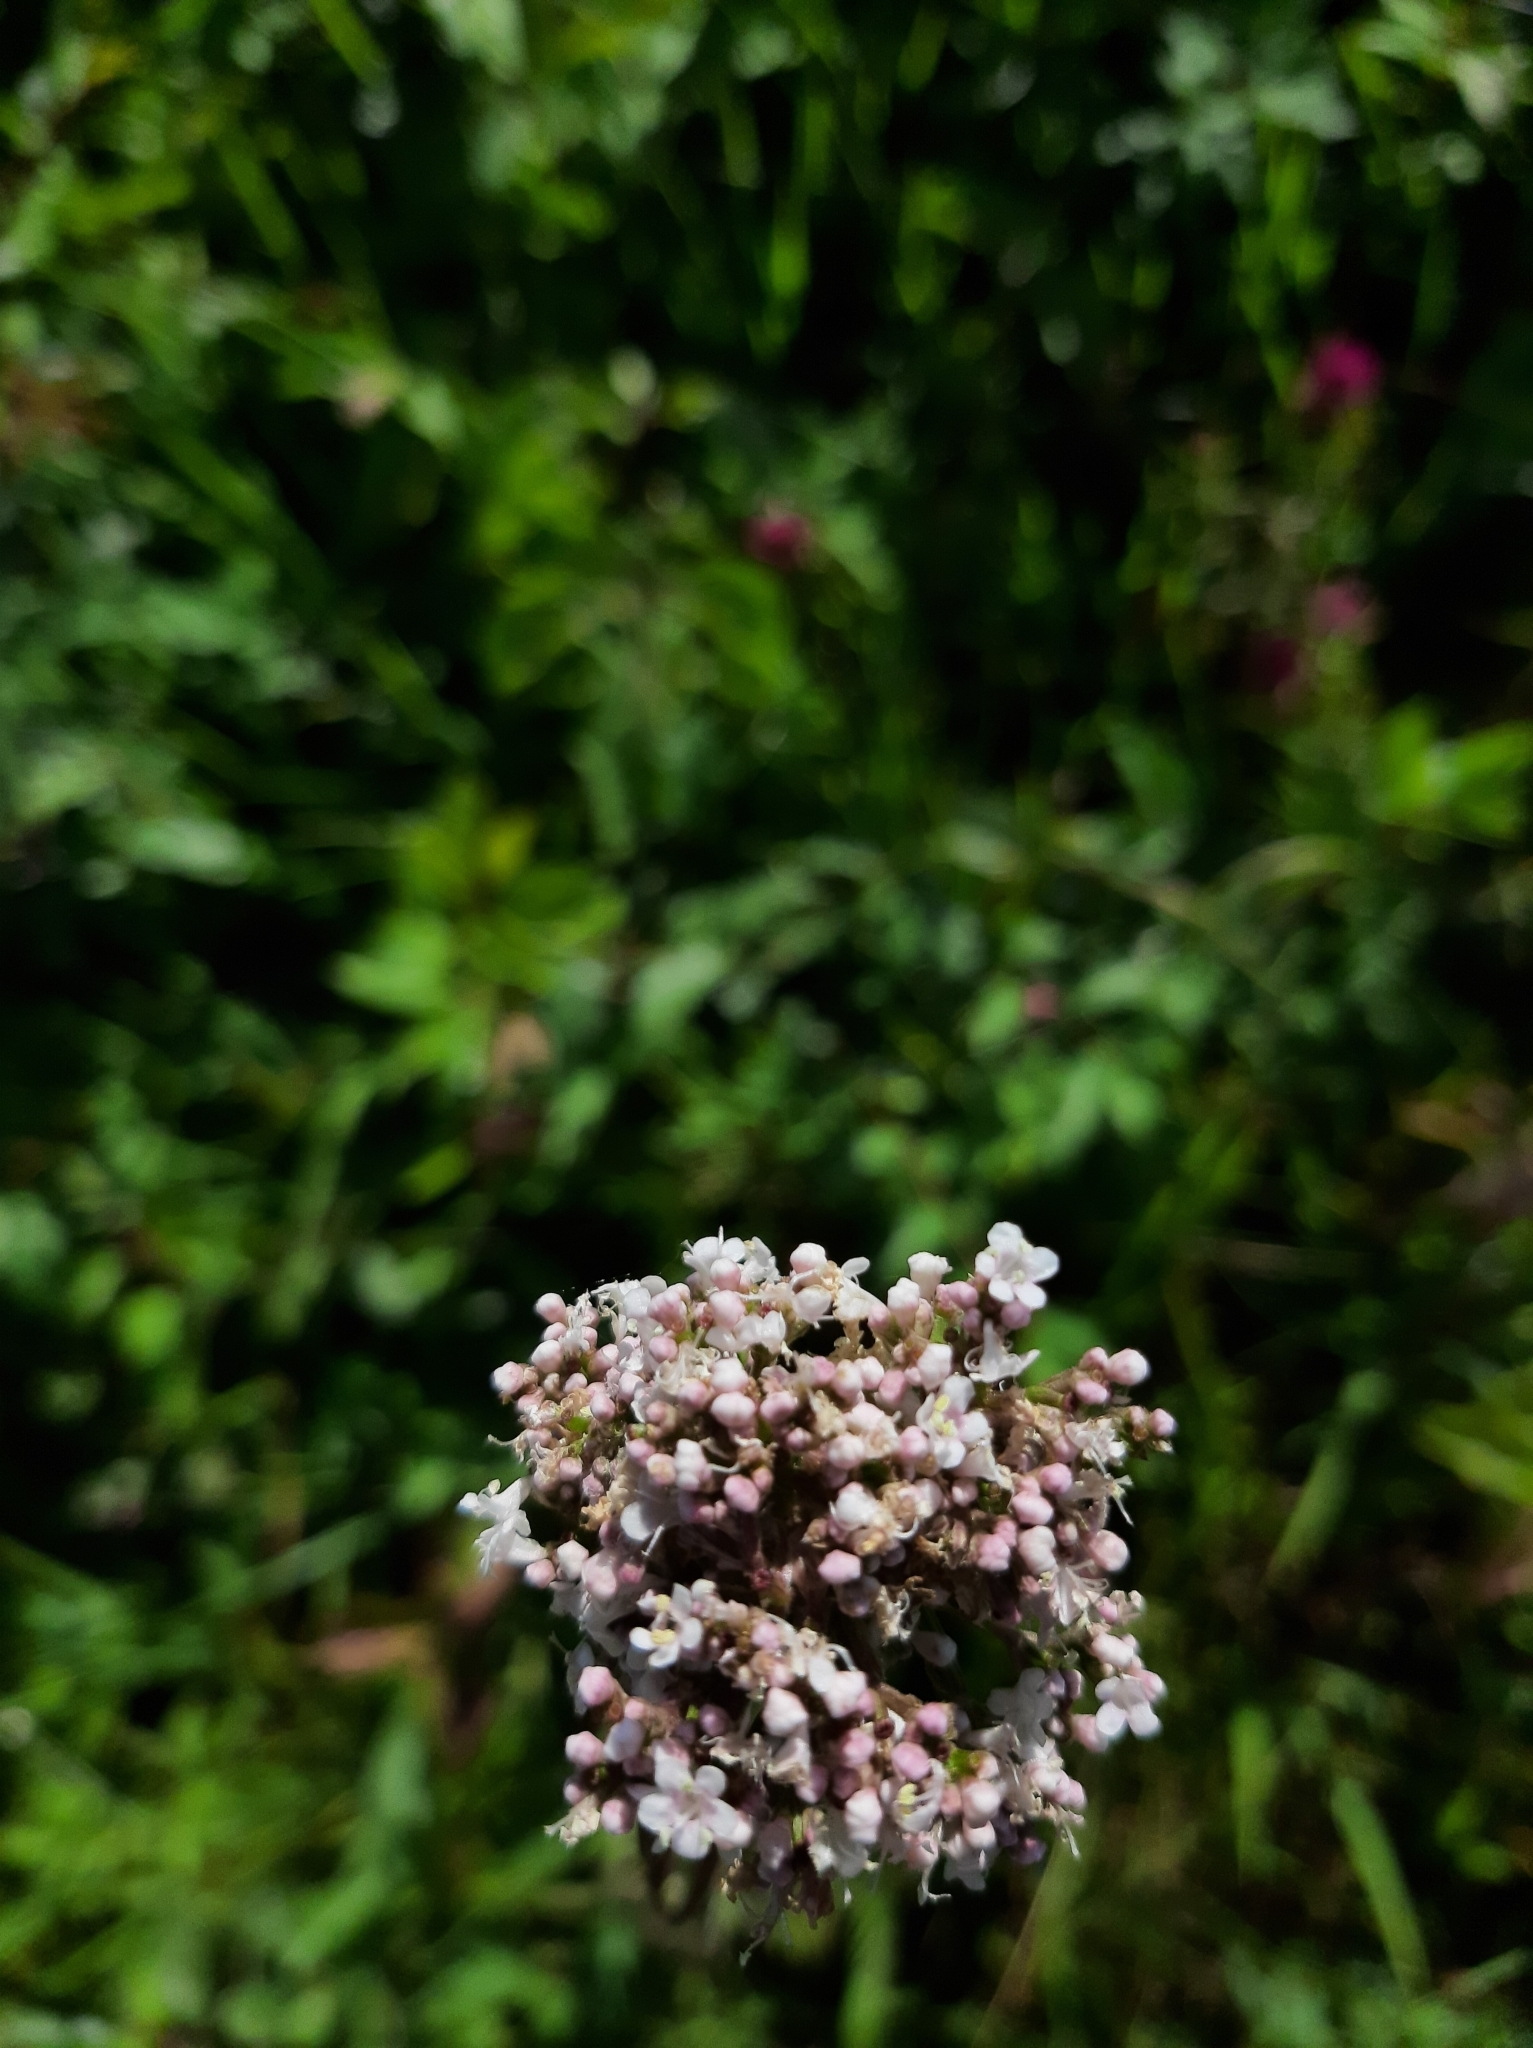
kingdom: Plantae
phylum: Tracheophyta
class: Magnoliopsida
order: Dipsacales
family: Caprifoliaceae
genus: Valeriana
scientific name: Valeriana officinalis
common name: Common valerian
